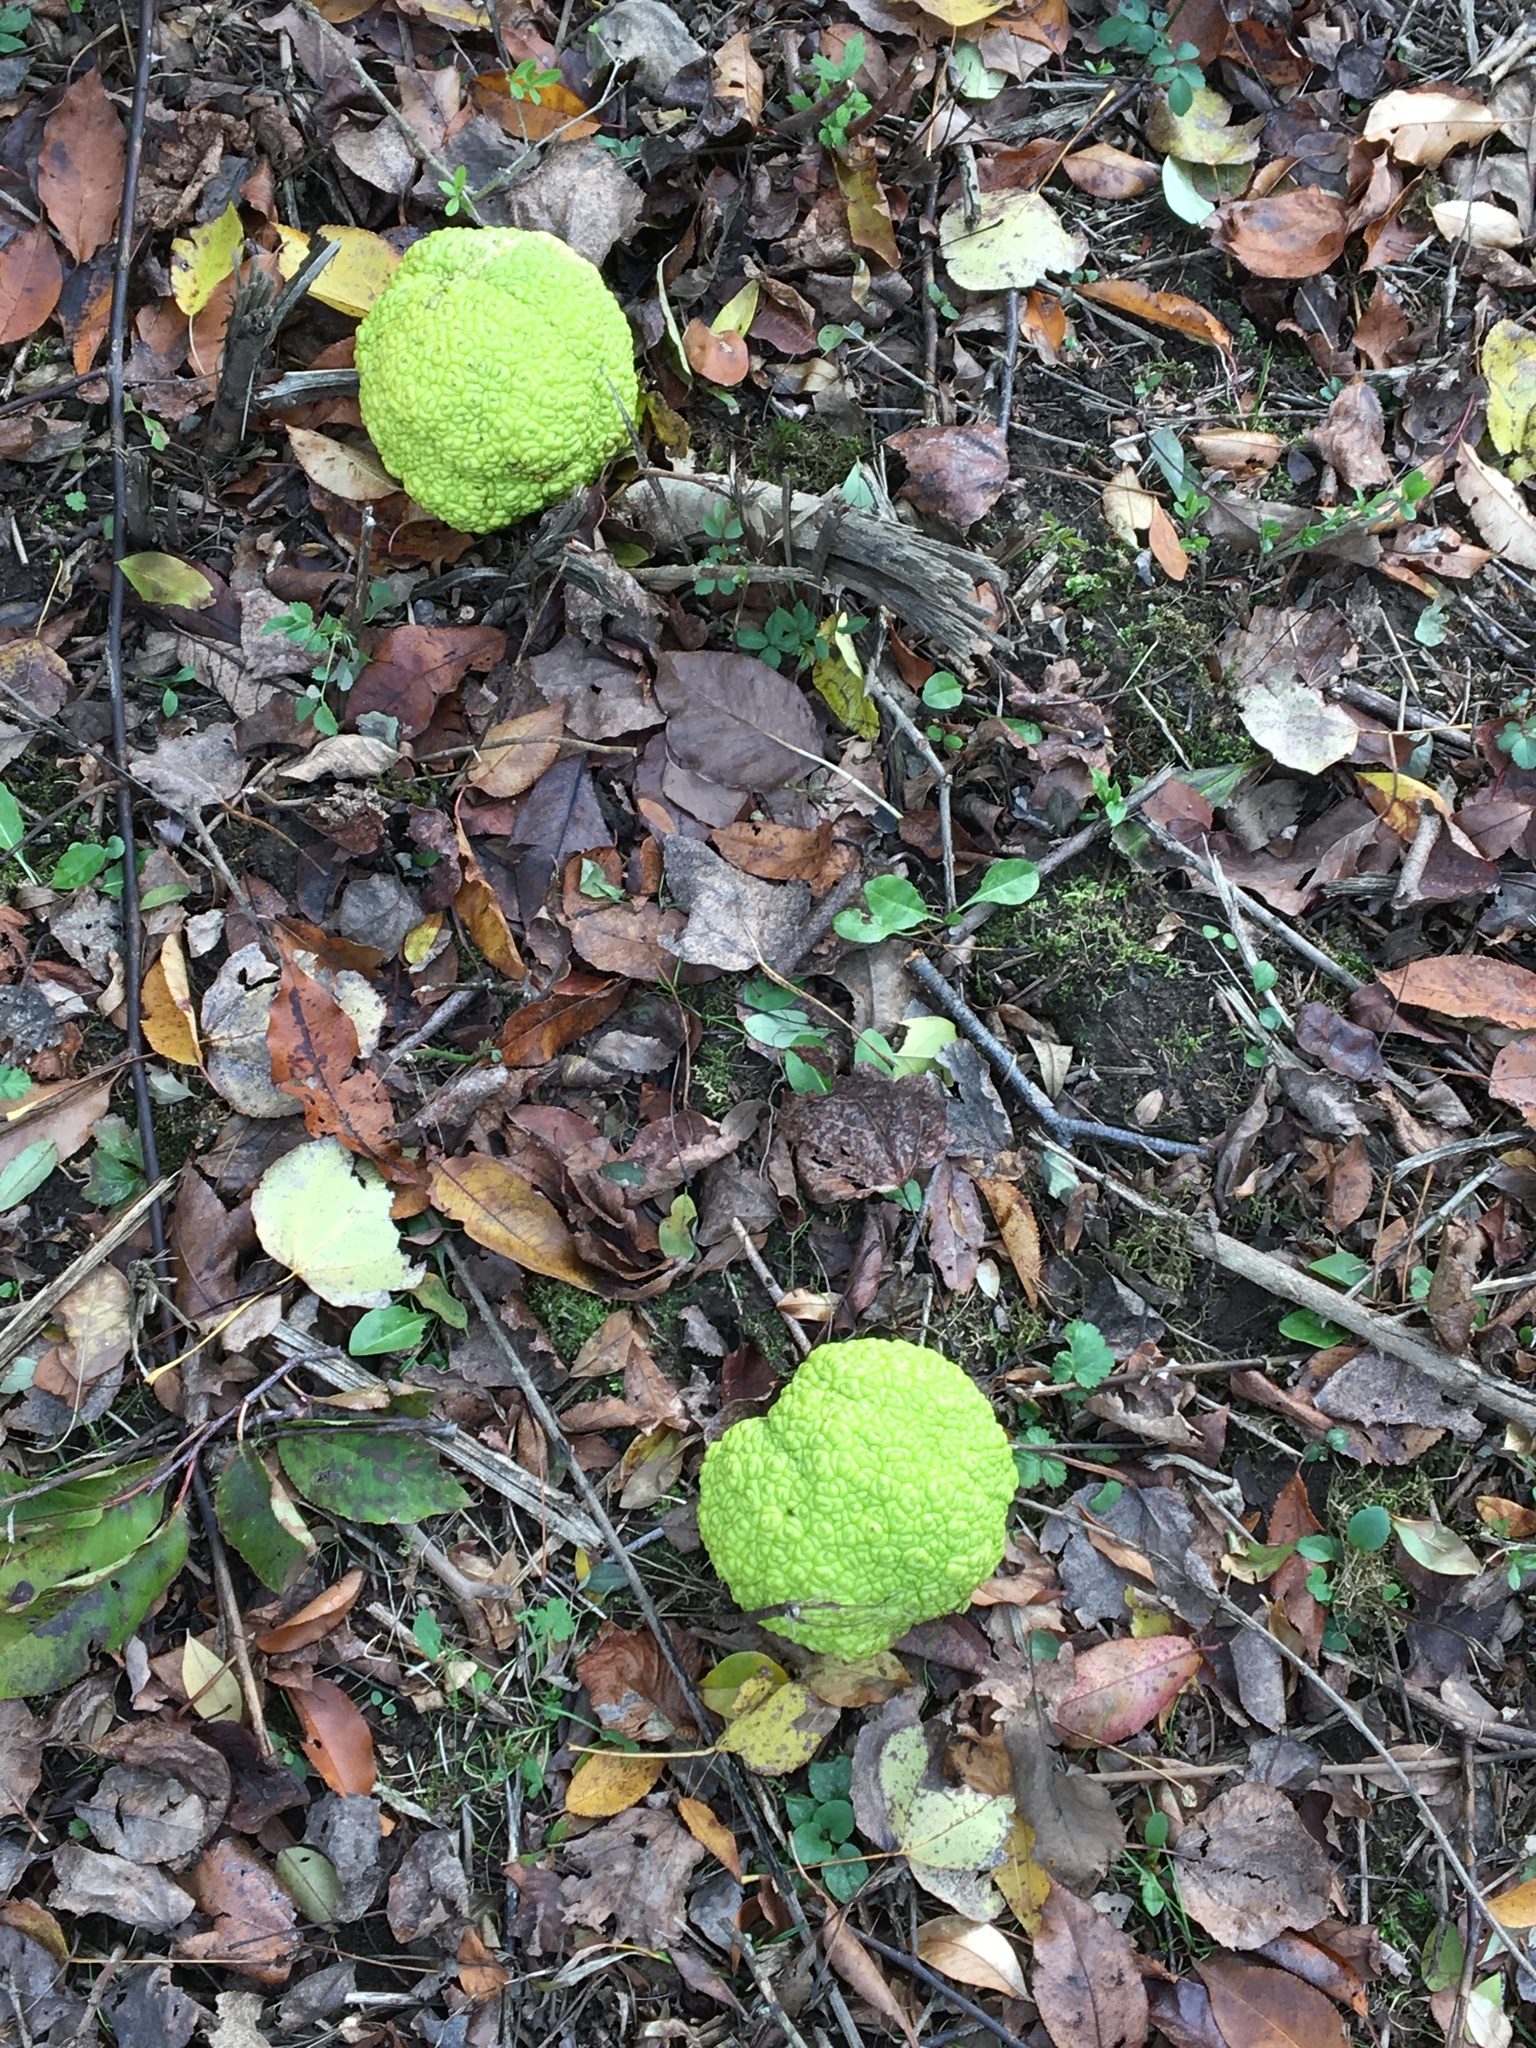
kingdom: Plantae
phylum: Tracheophyta
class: Magnoliopsida
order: Rosales
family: Moraceae
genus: Maclura
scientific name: Maclura pomifera
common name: Osage-orange
